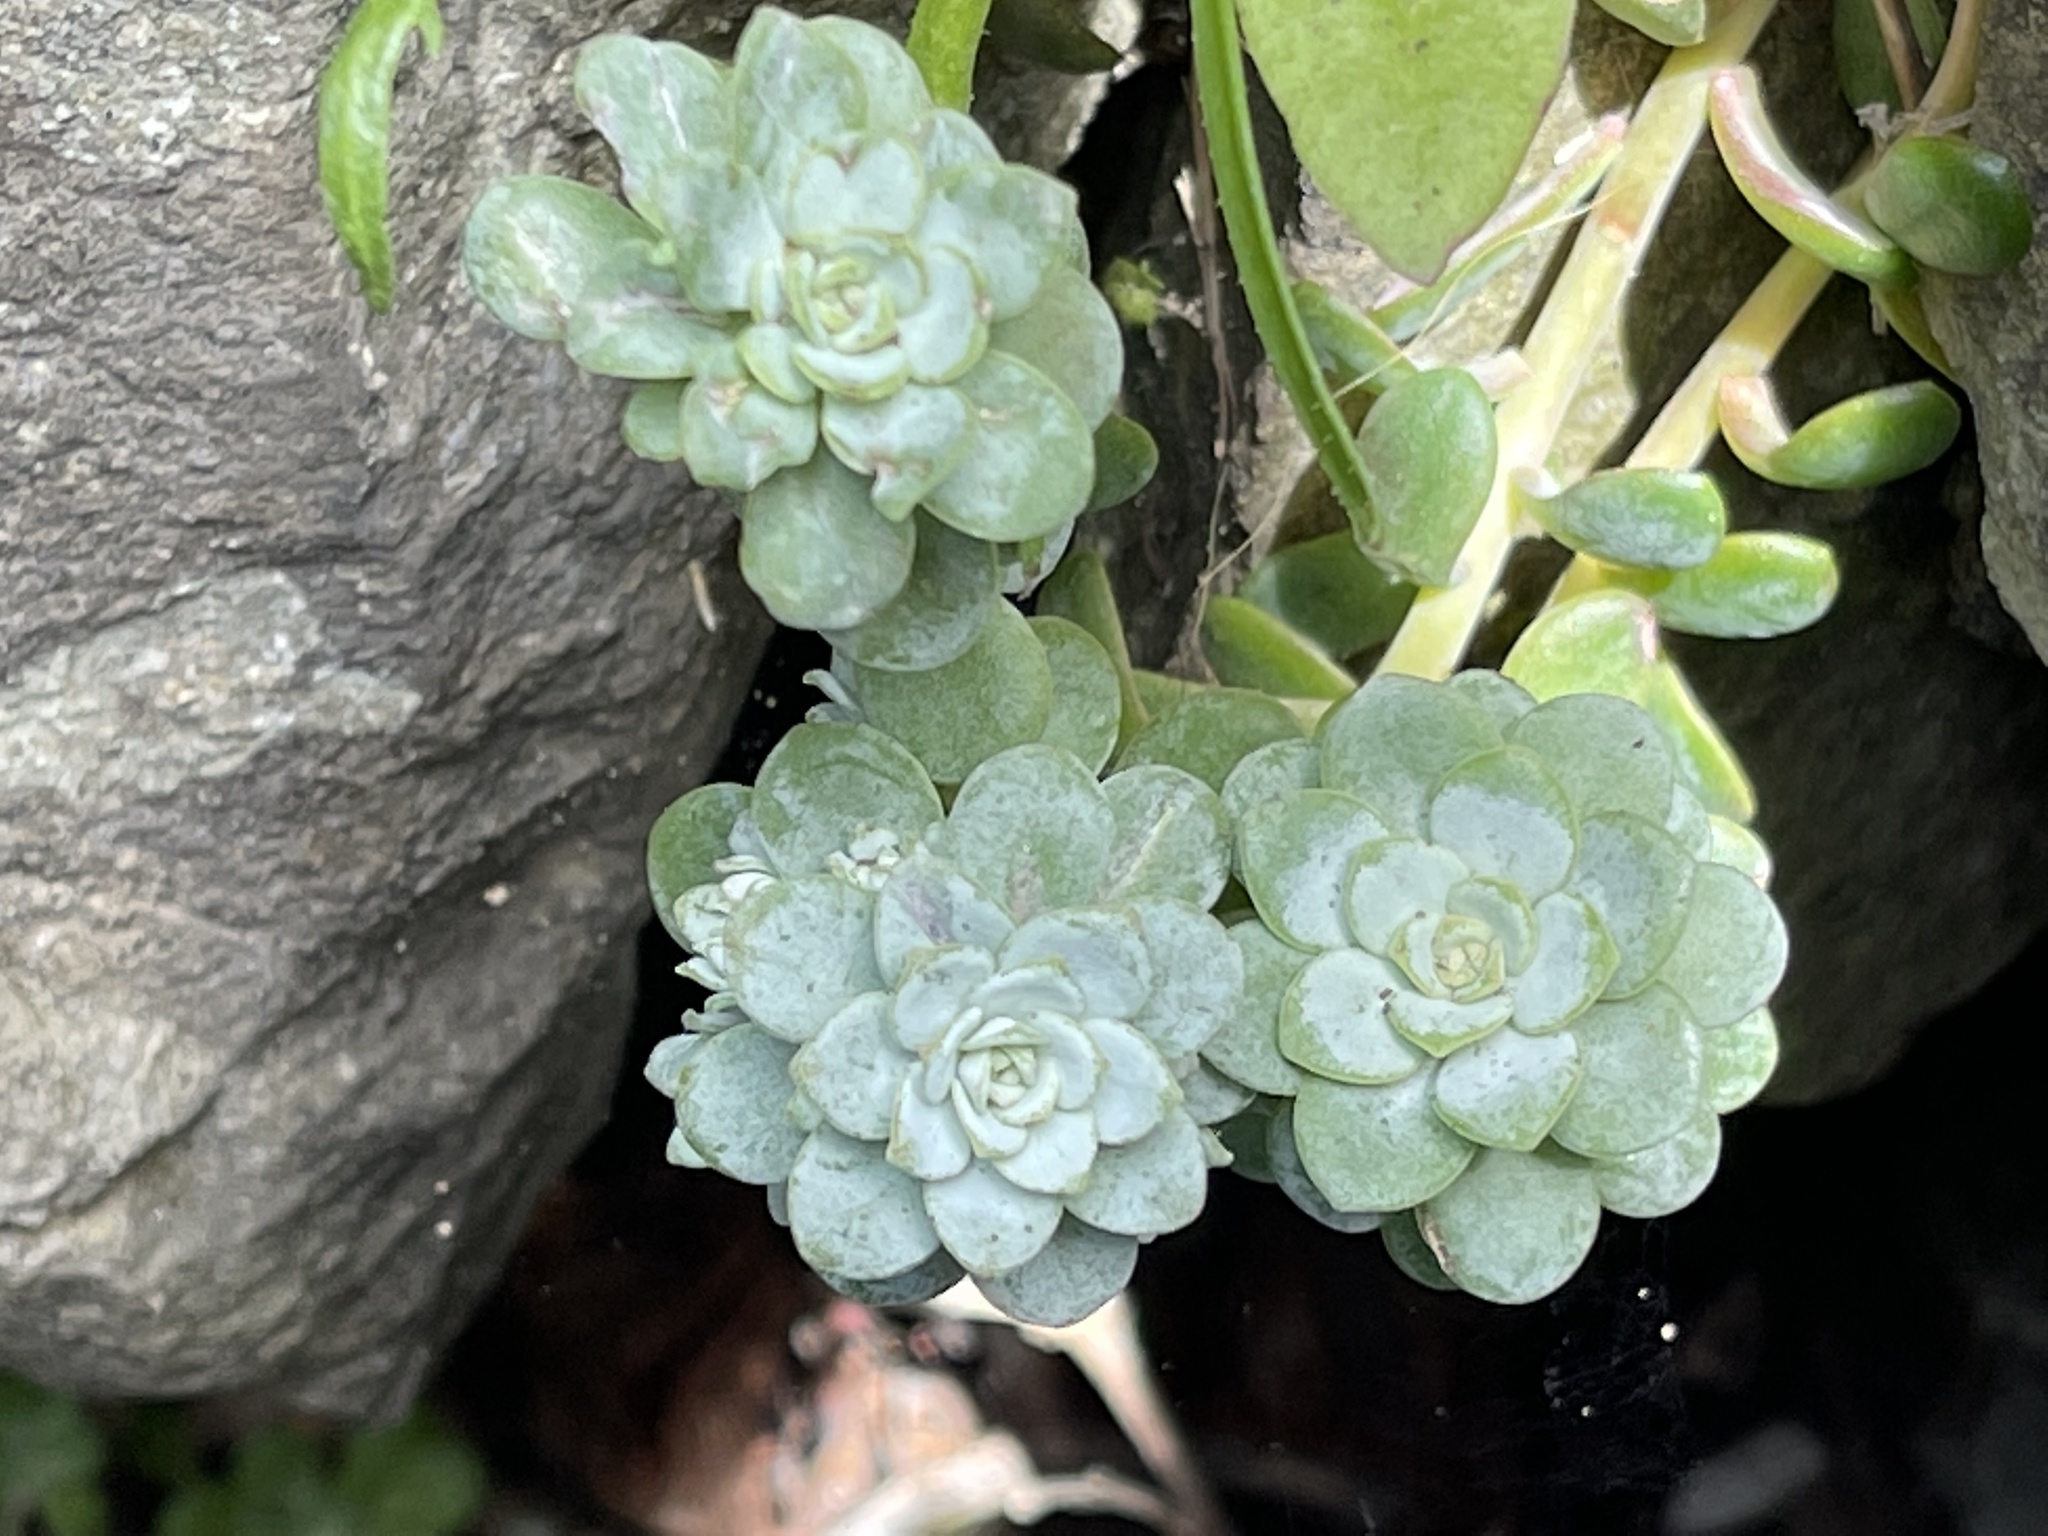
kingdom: Plantae
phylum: Tracheophyta
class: Magnoliopsida
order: Saxifragales
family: Crassulaceae
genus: Sedum
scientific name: Sedum spathulifolium
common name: Colorado stonecrop
